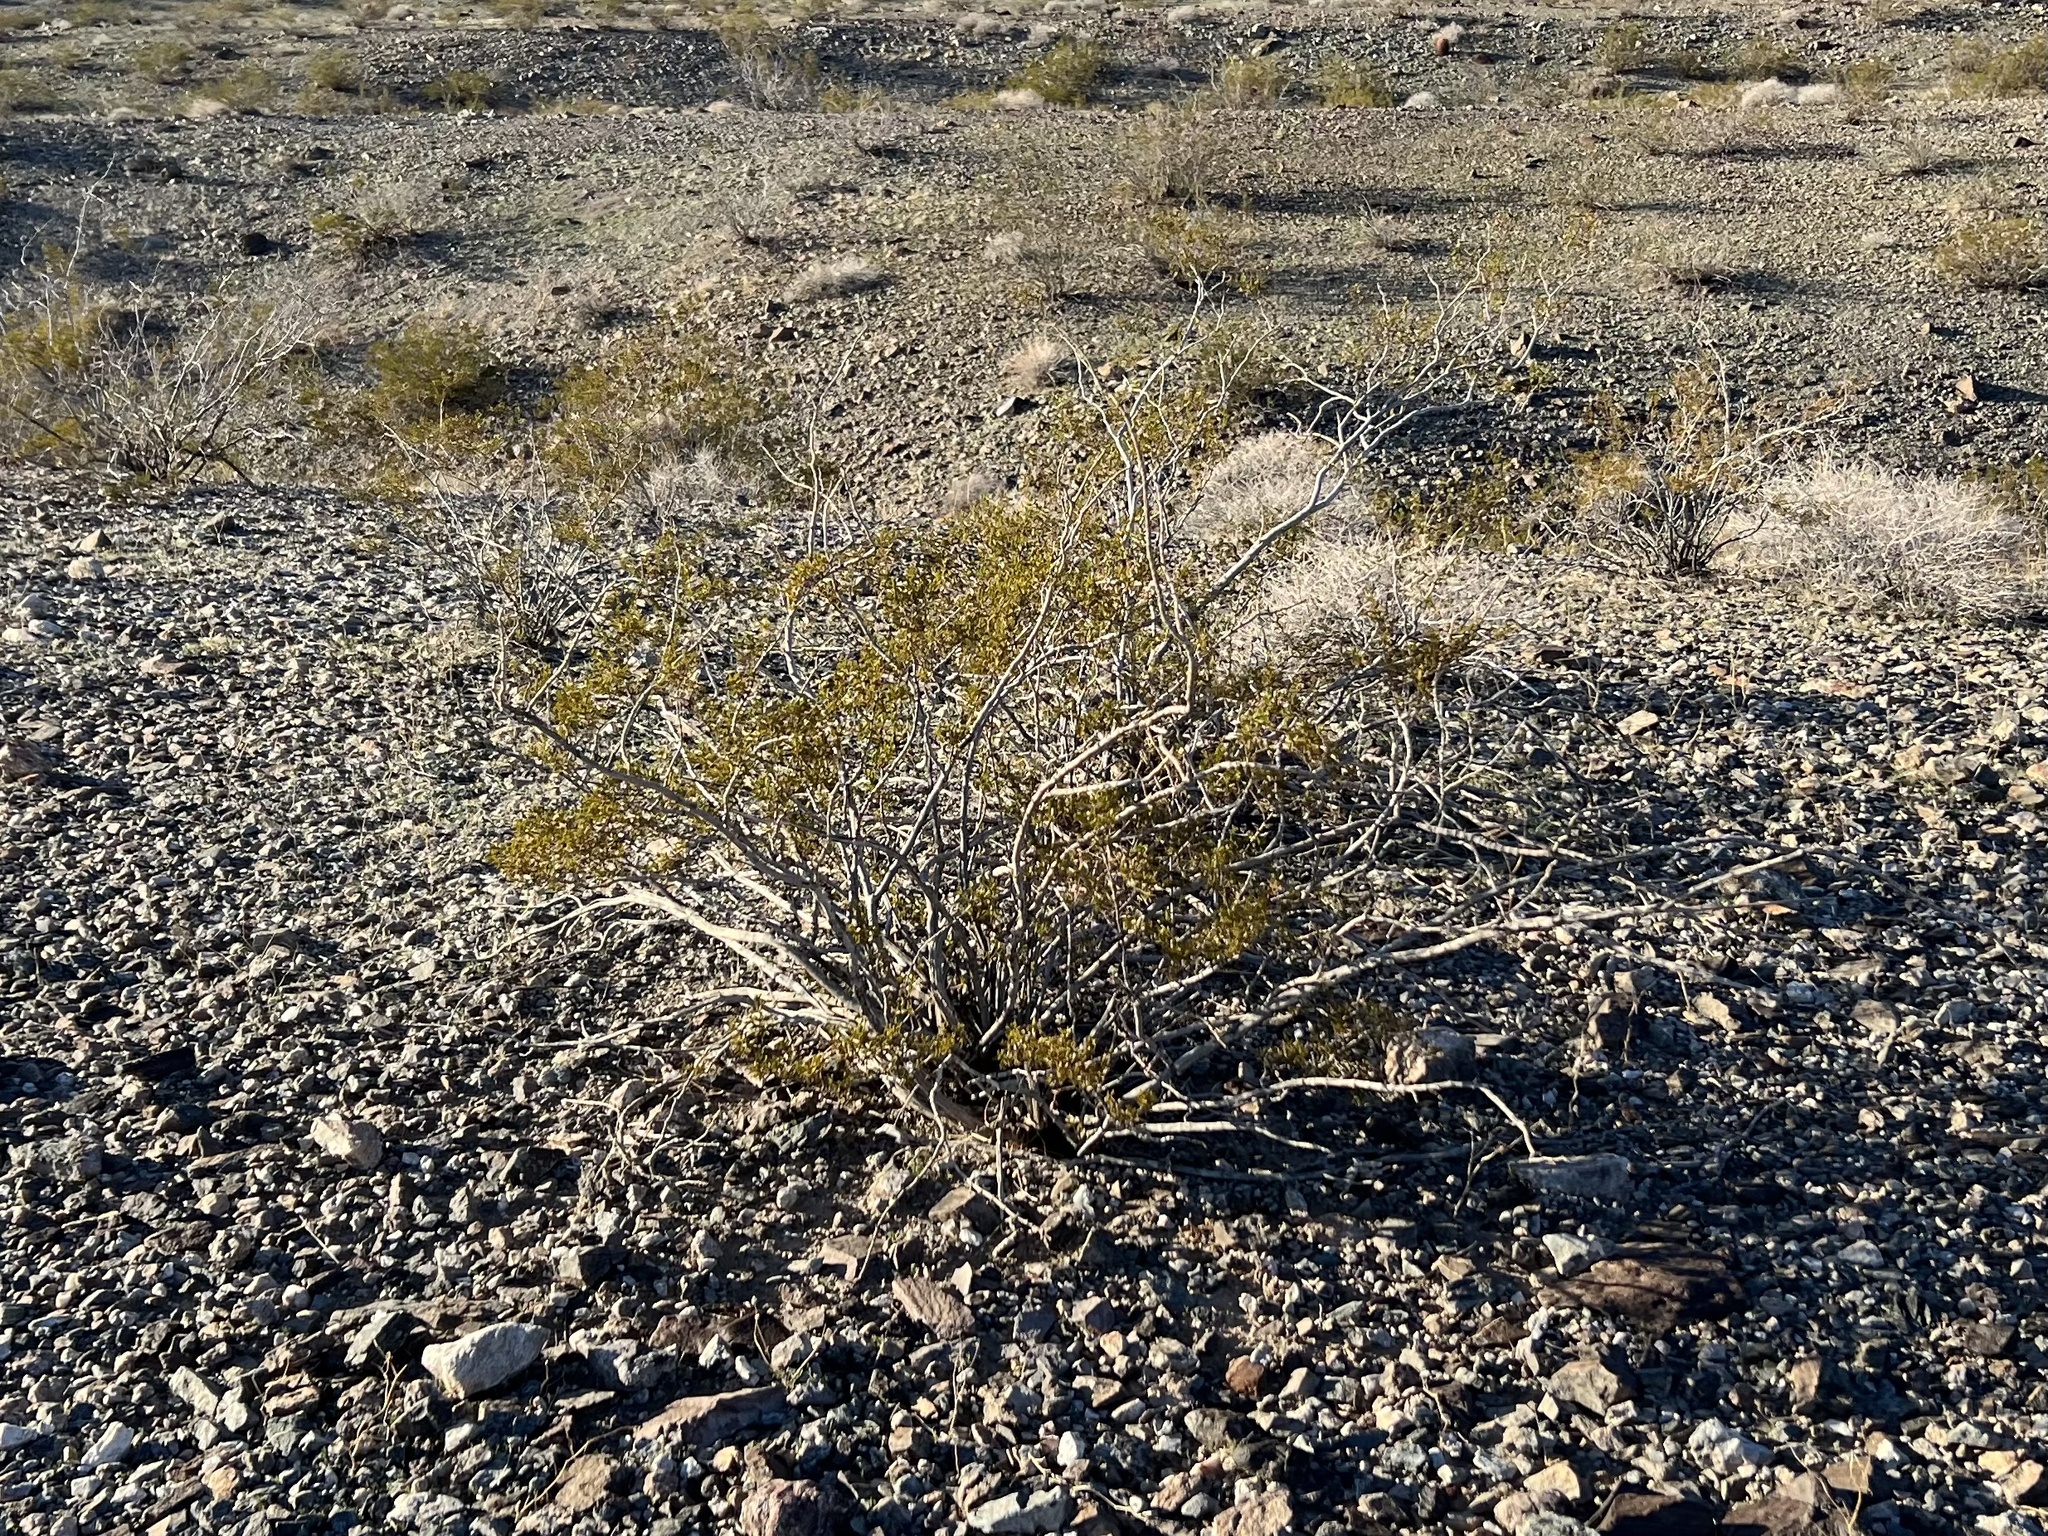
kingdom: Plantae
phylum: Tracheophyta
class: Magnoliopsida
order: Zygophyllales
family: Zygophyllaceae
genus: Larrea
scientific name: Larrea tridentata
